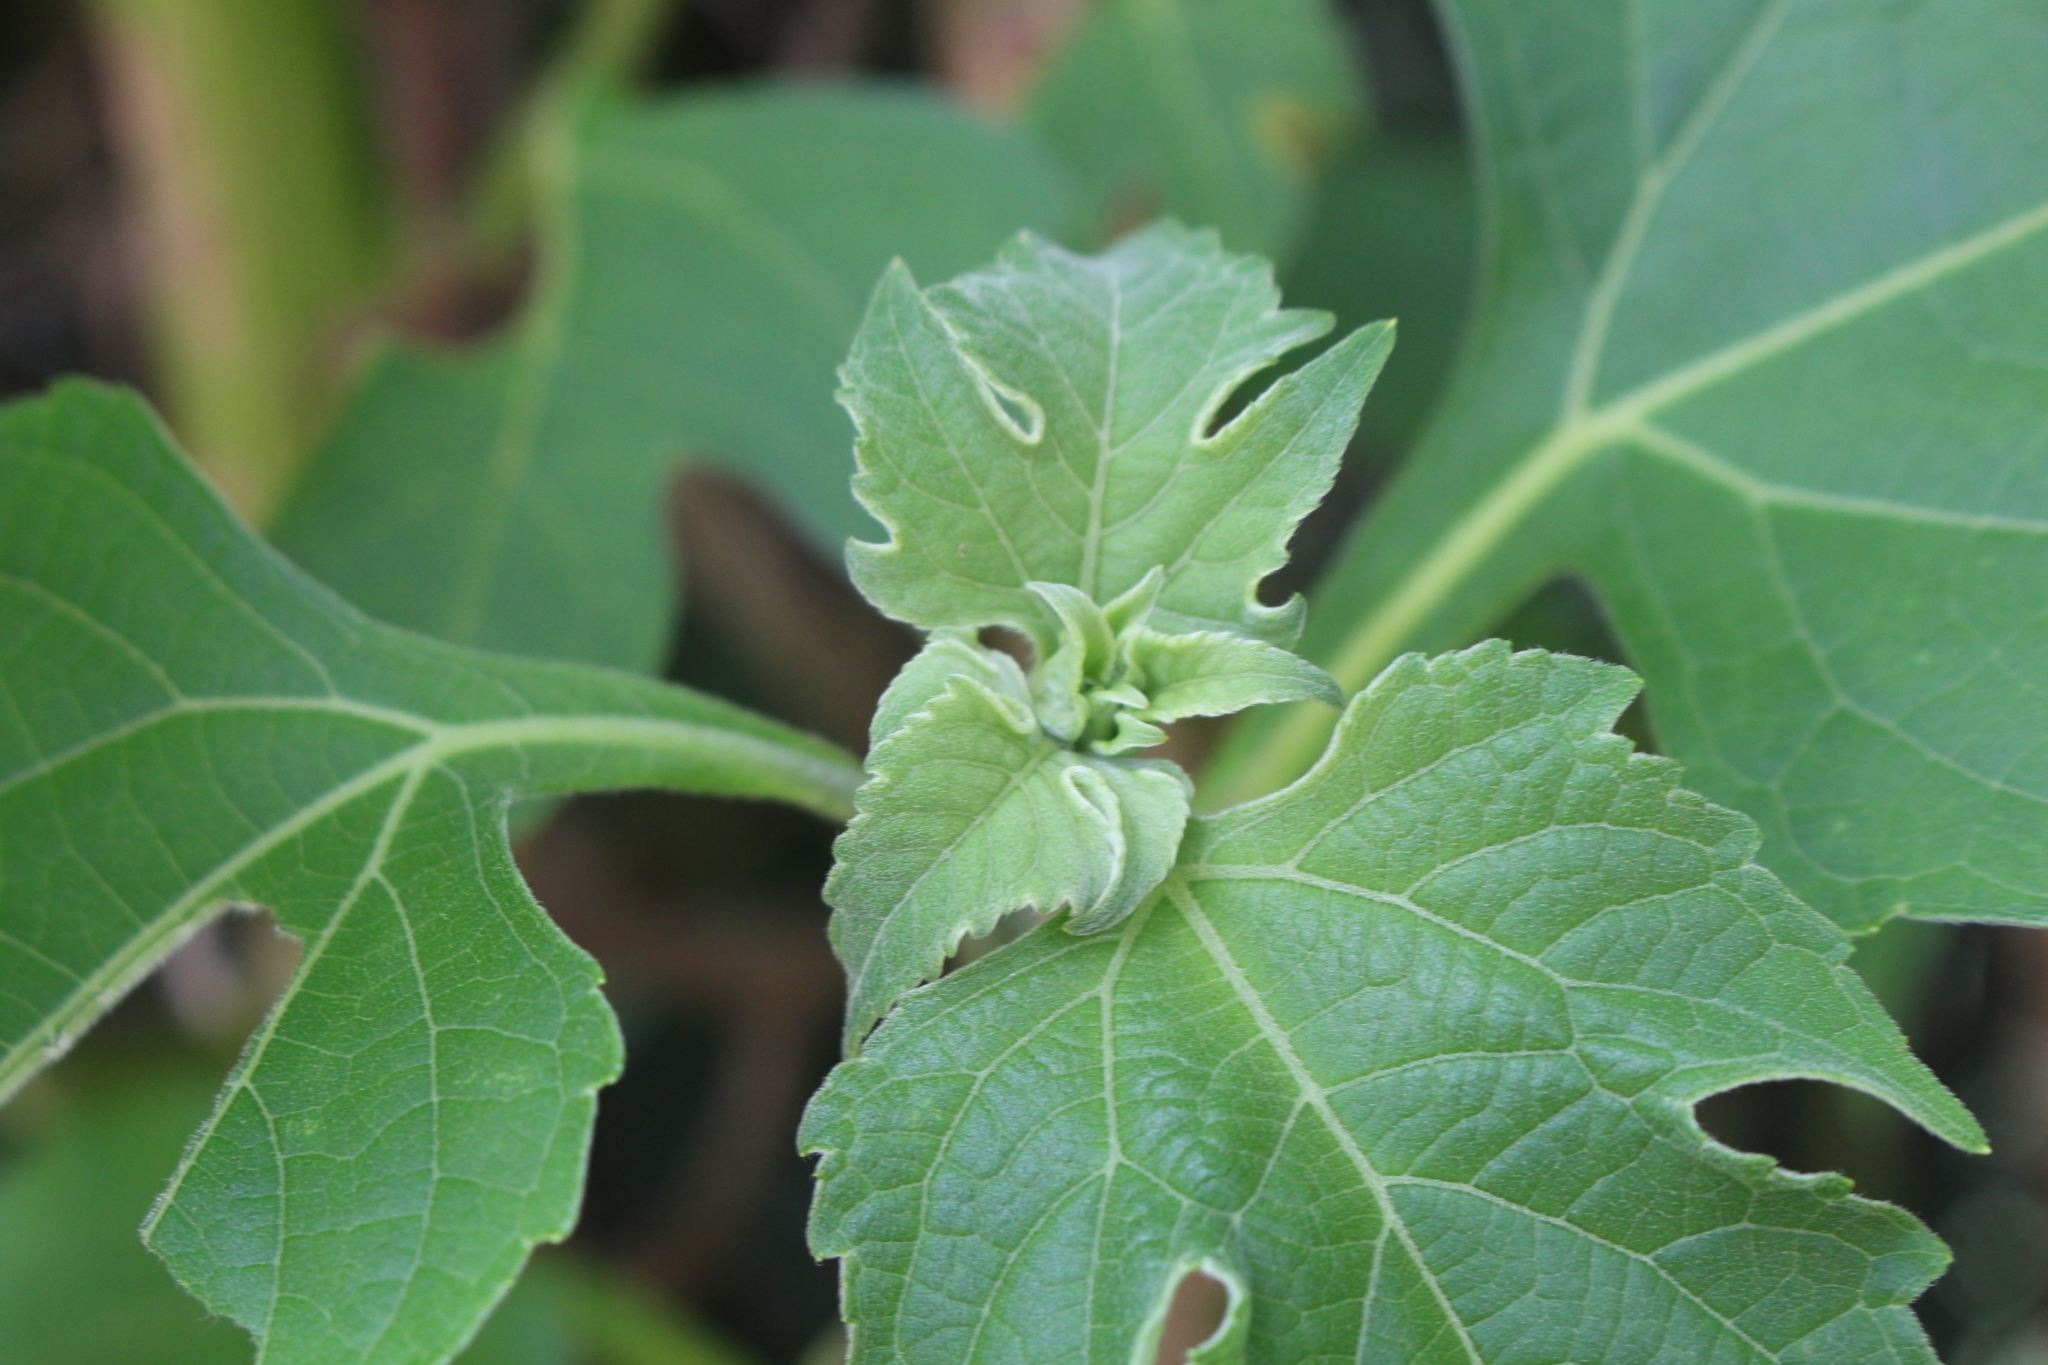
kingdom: Plantae
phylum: Tracheophyta
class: Magnoliopsida
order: Asterales
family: Asteraceae
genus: Tithonia
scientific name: Tithonia diversifolia
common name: Tree marigold
